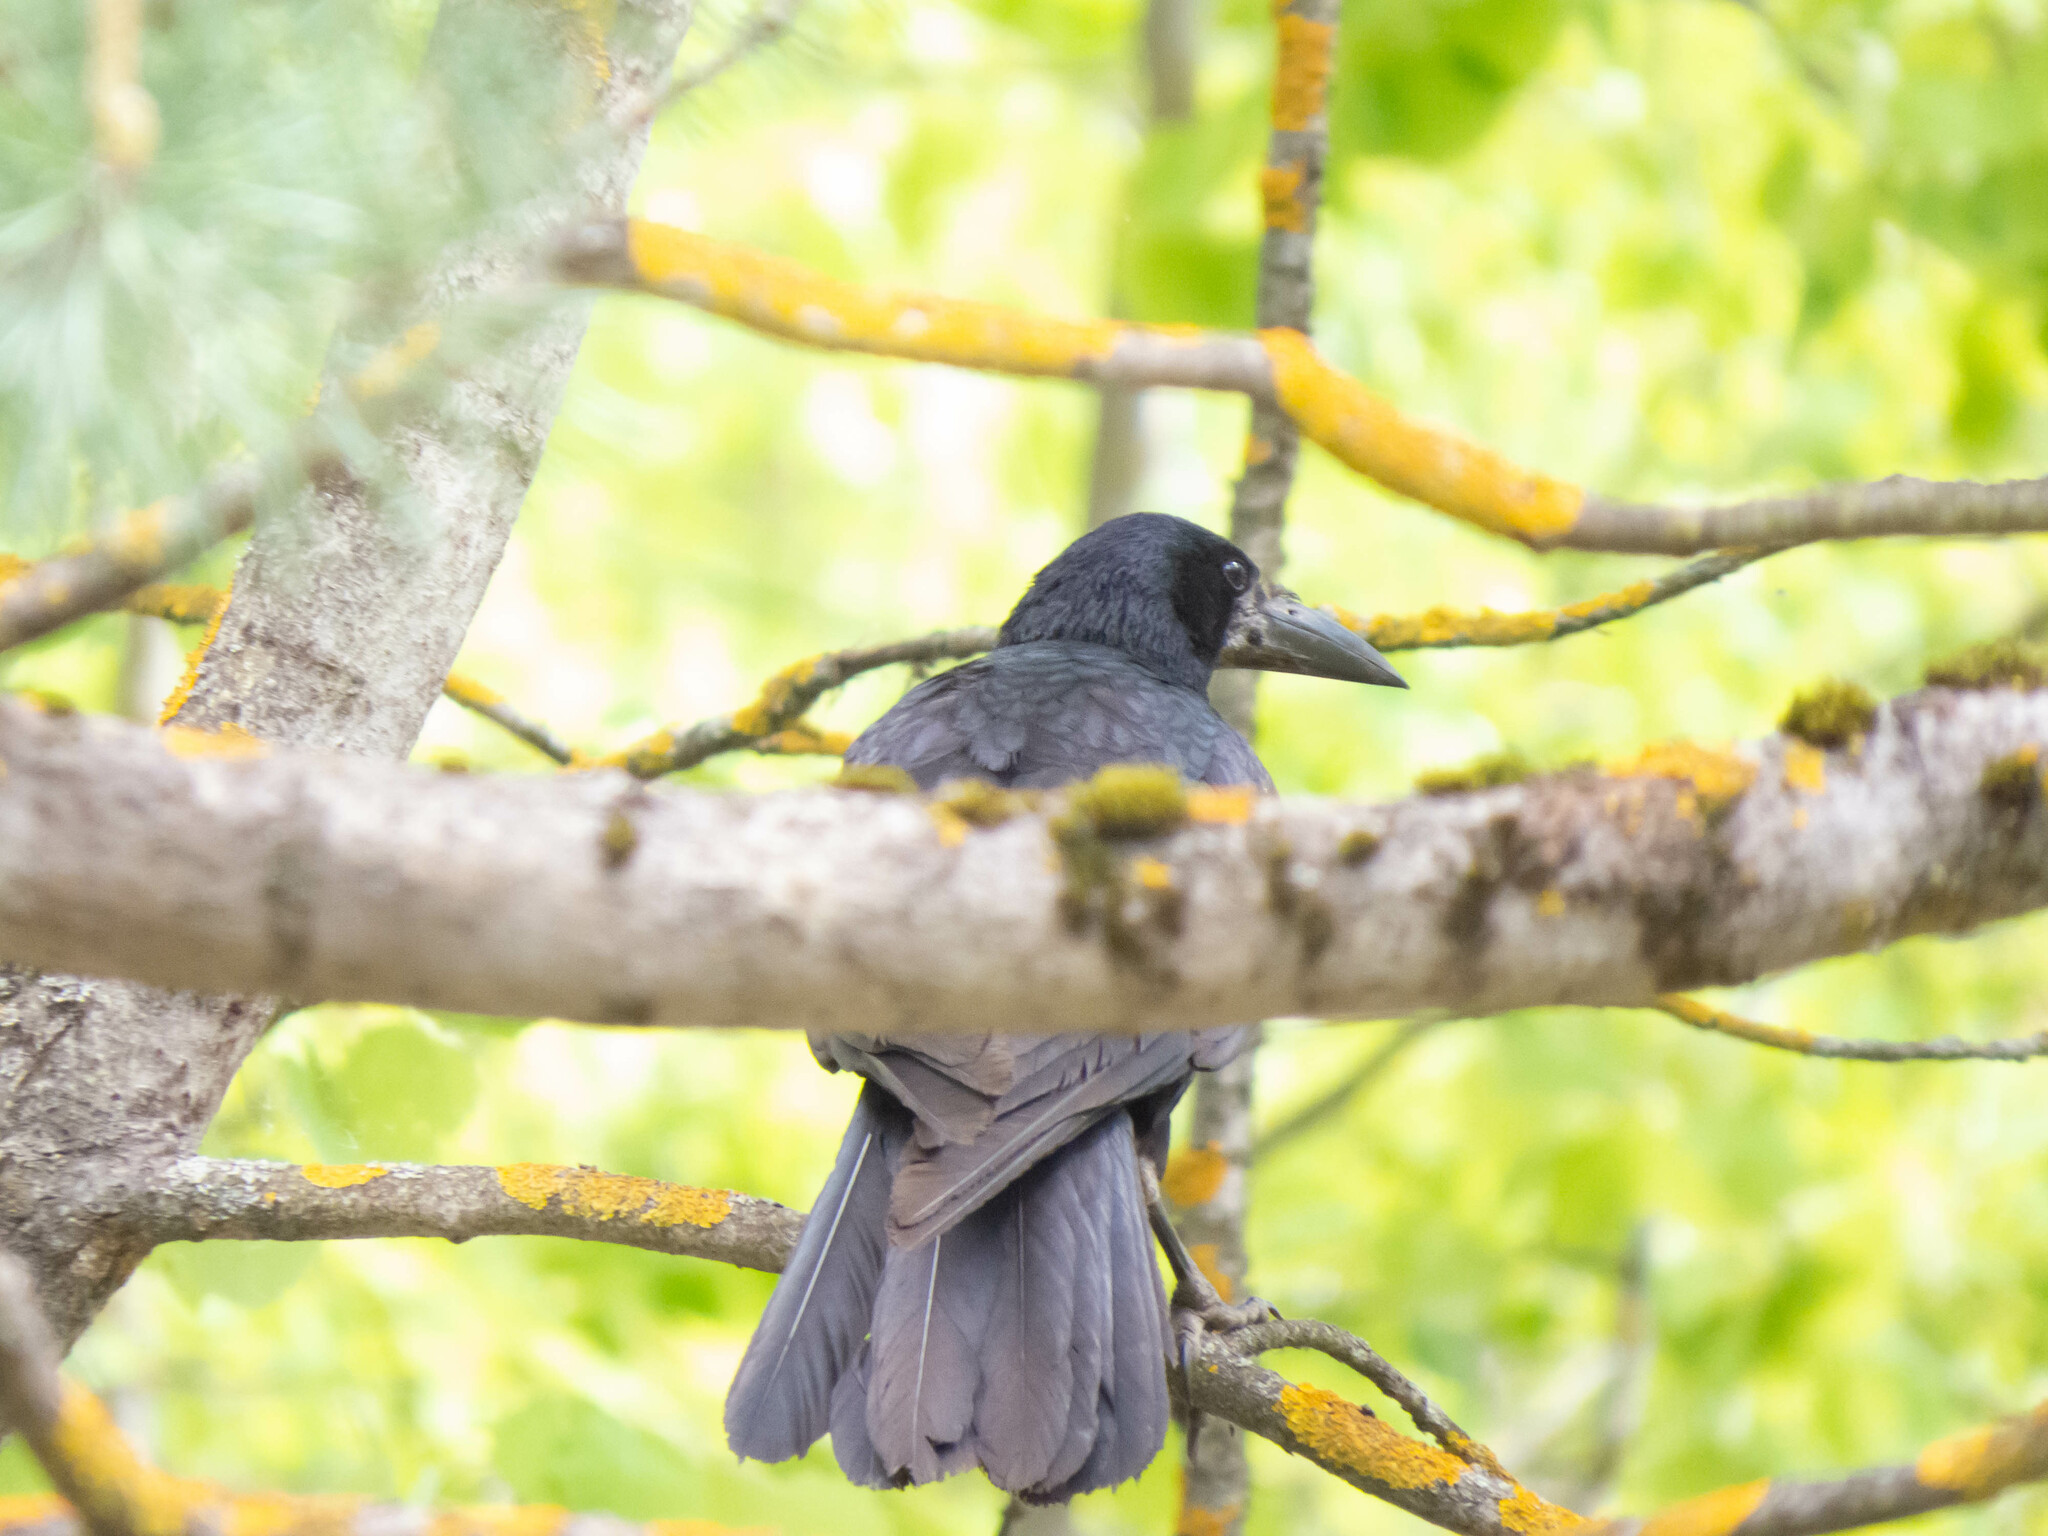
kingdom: Animalia
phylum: Chordata
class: Aves
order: Passeriformes
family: Corvidae
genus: Corvus
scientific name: Corvus frugilegus
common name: Rook
